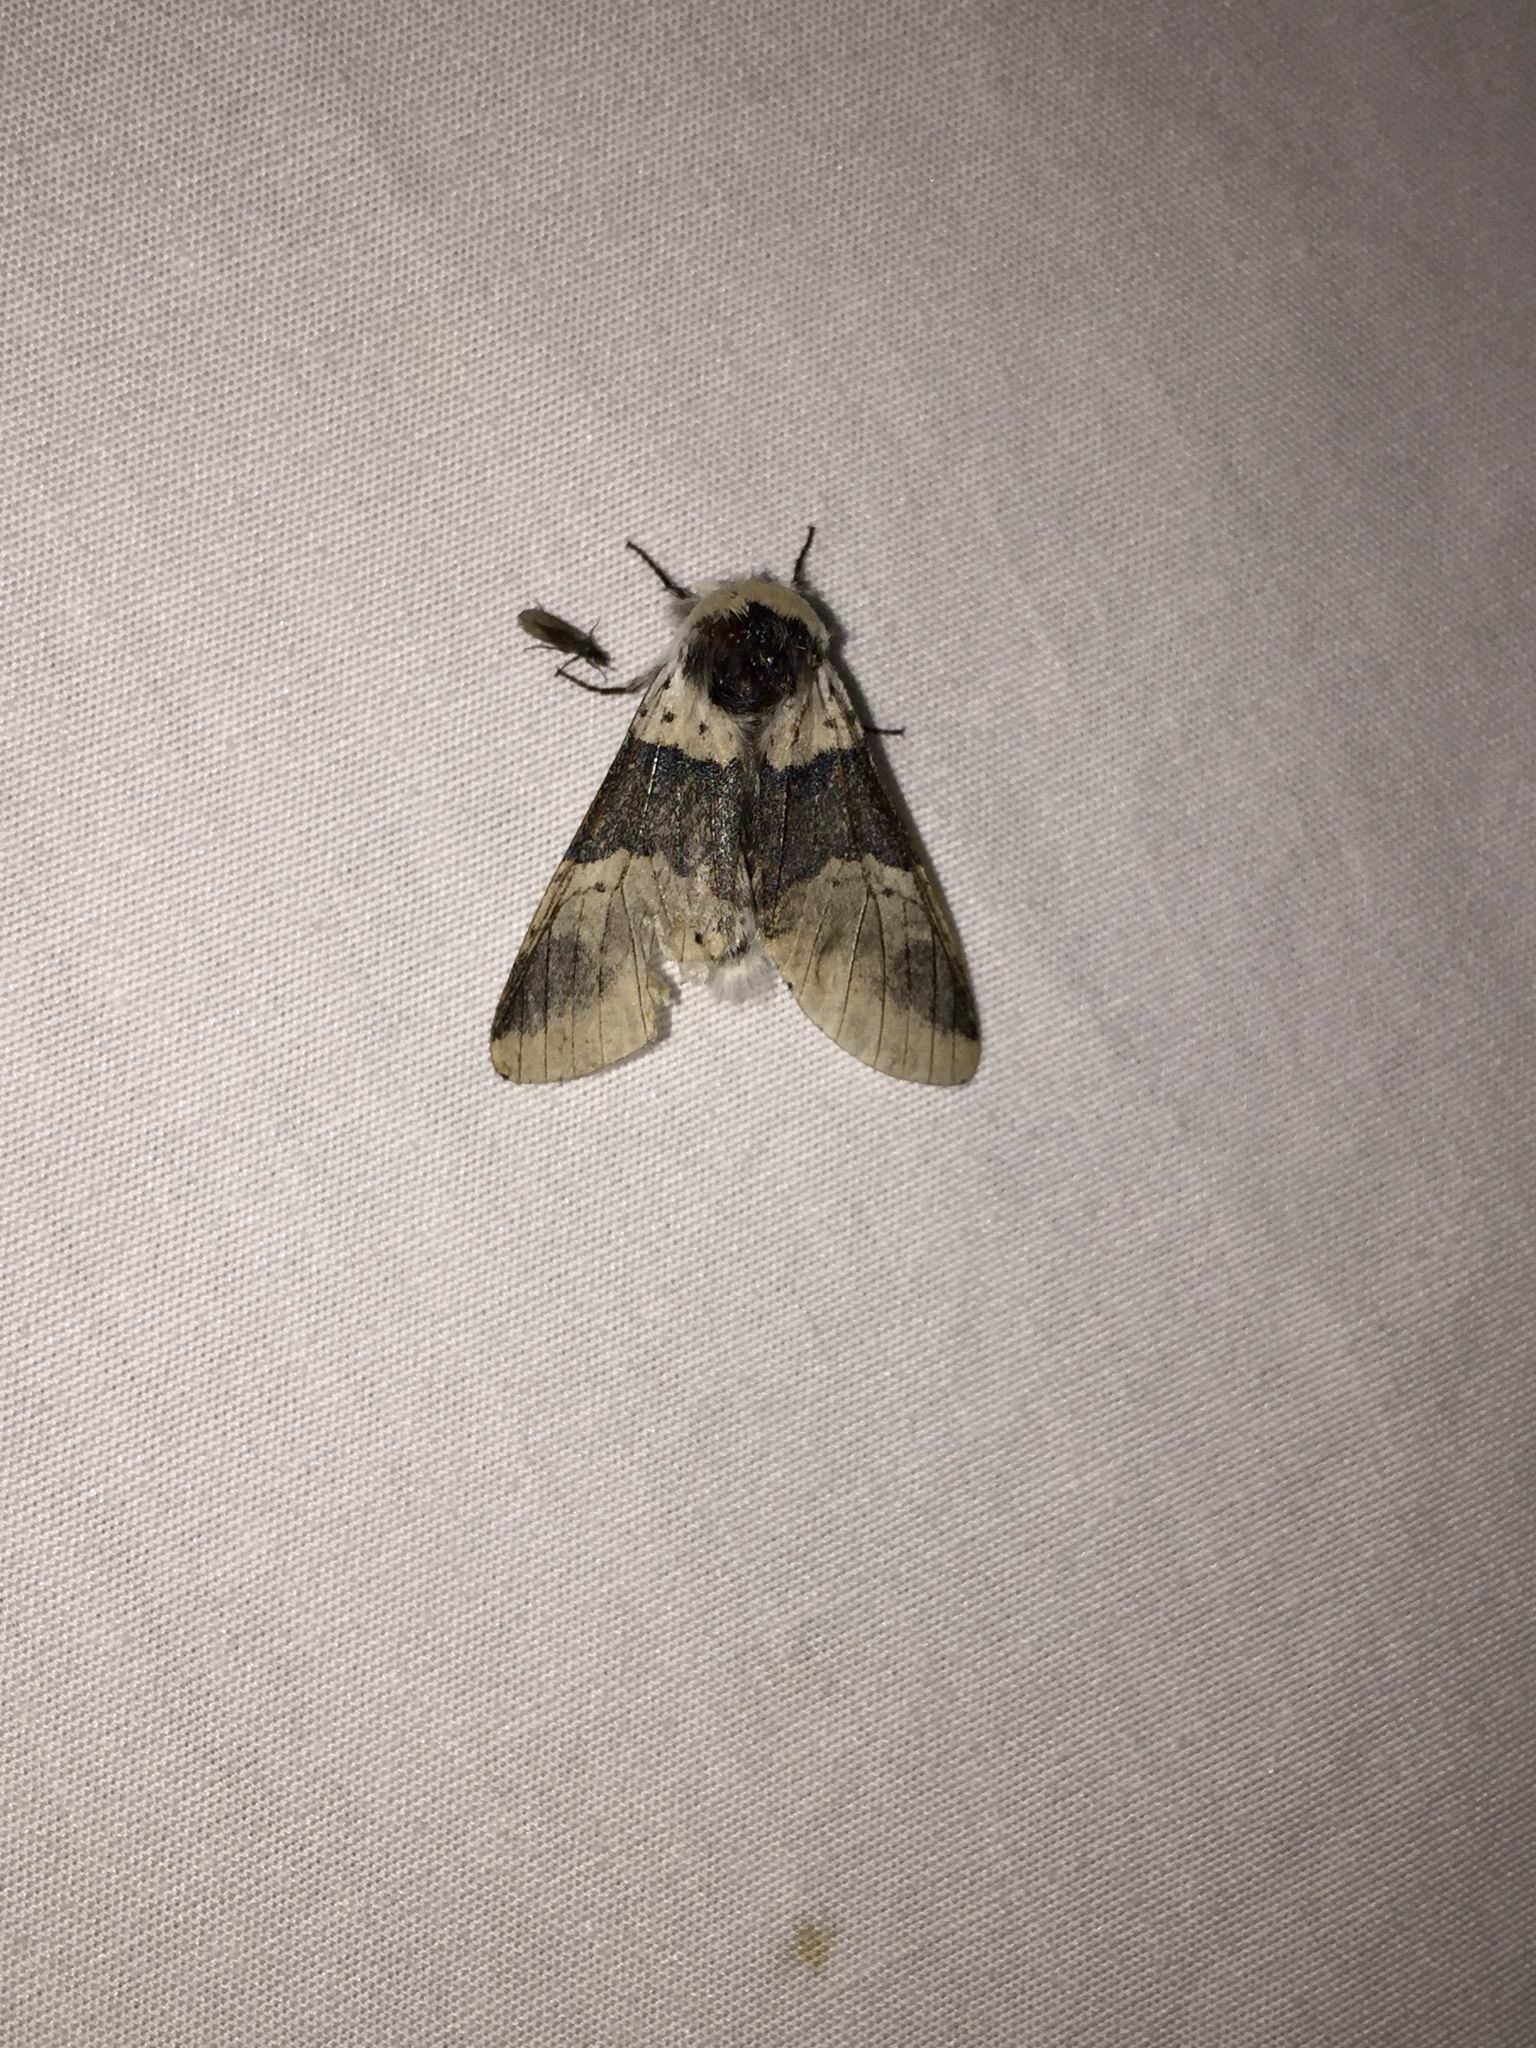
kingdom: Animalia
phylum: Arthropoda
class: Insecta
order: Lepidoptera
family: Notodontidae
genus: Furcula
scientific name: Furcula modesta
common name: Modest furcula moth
